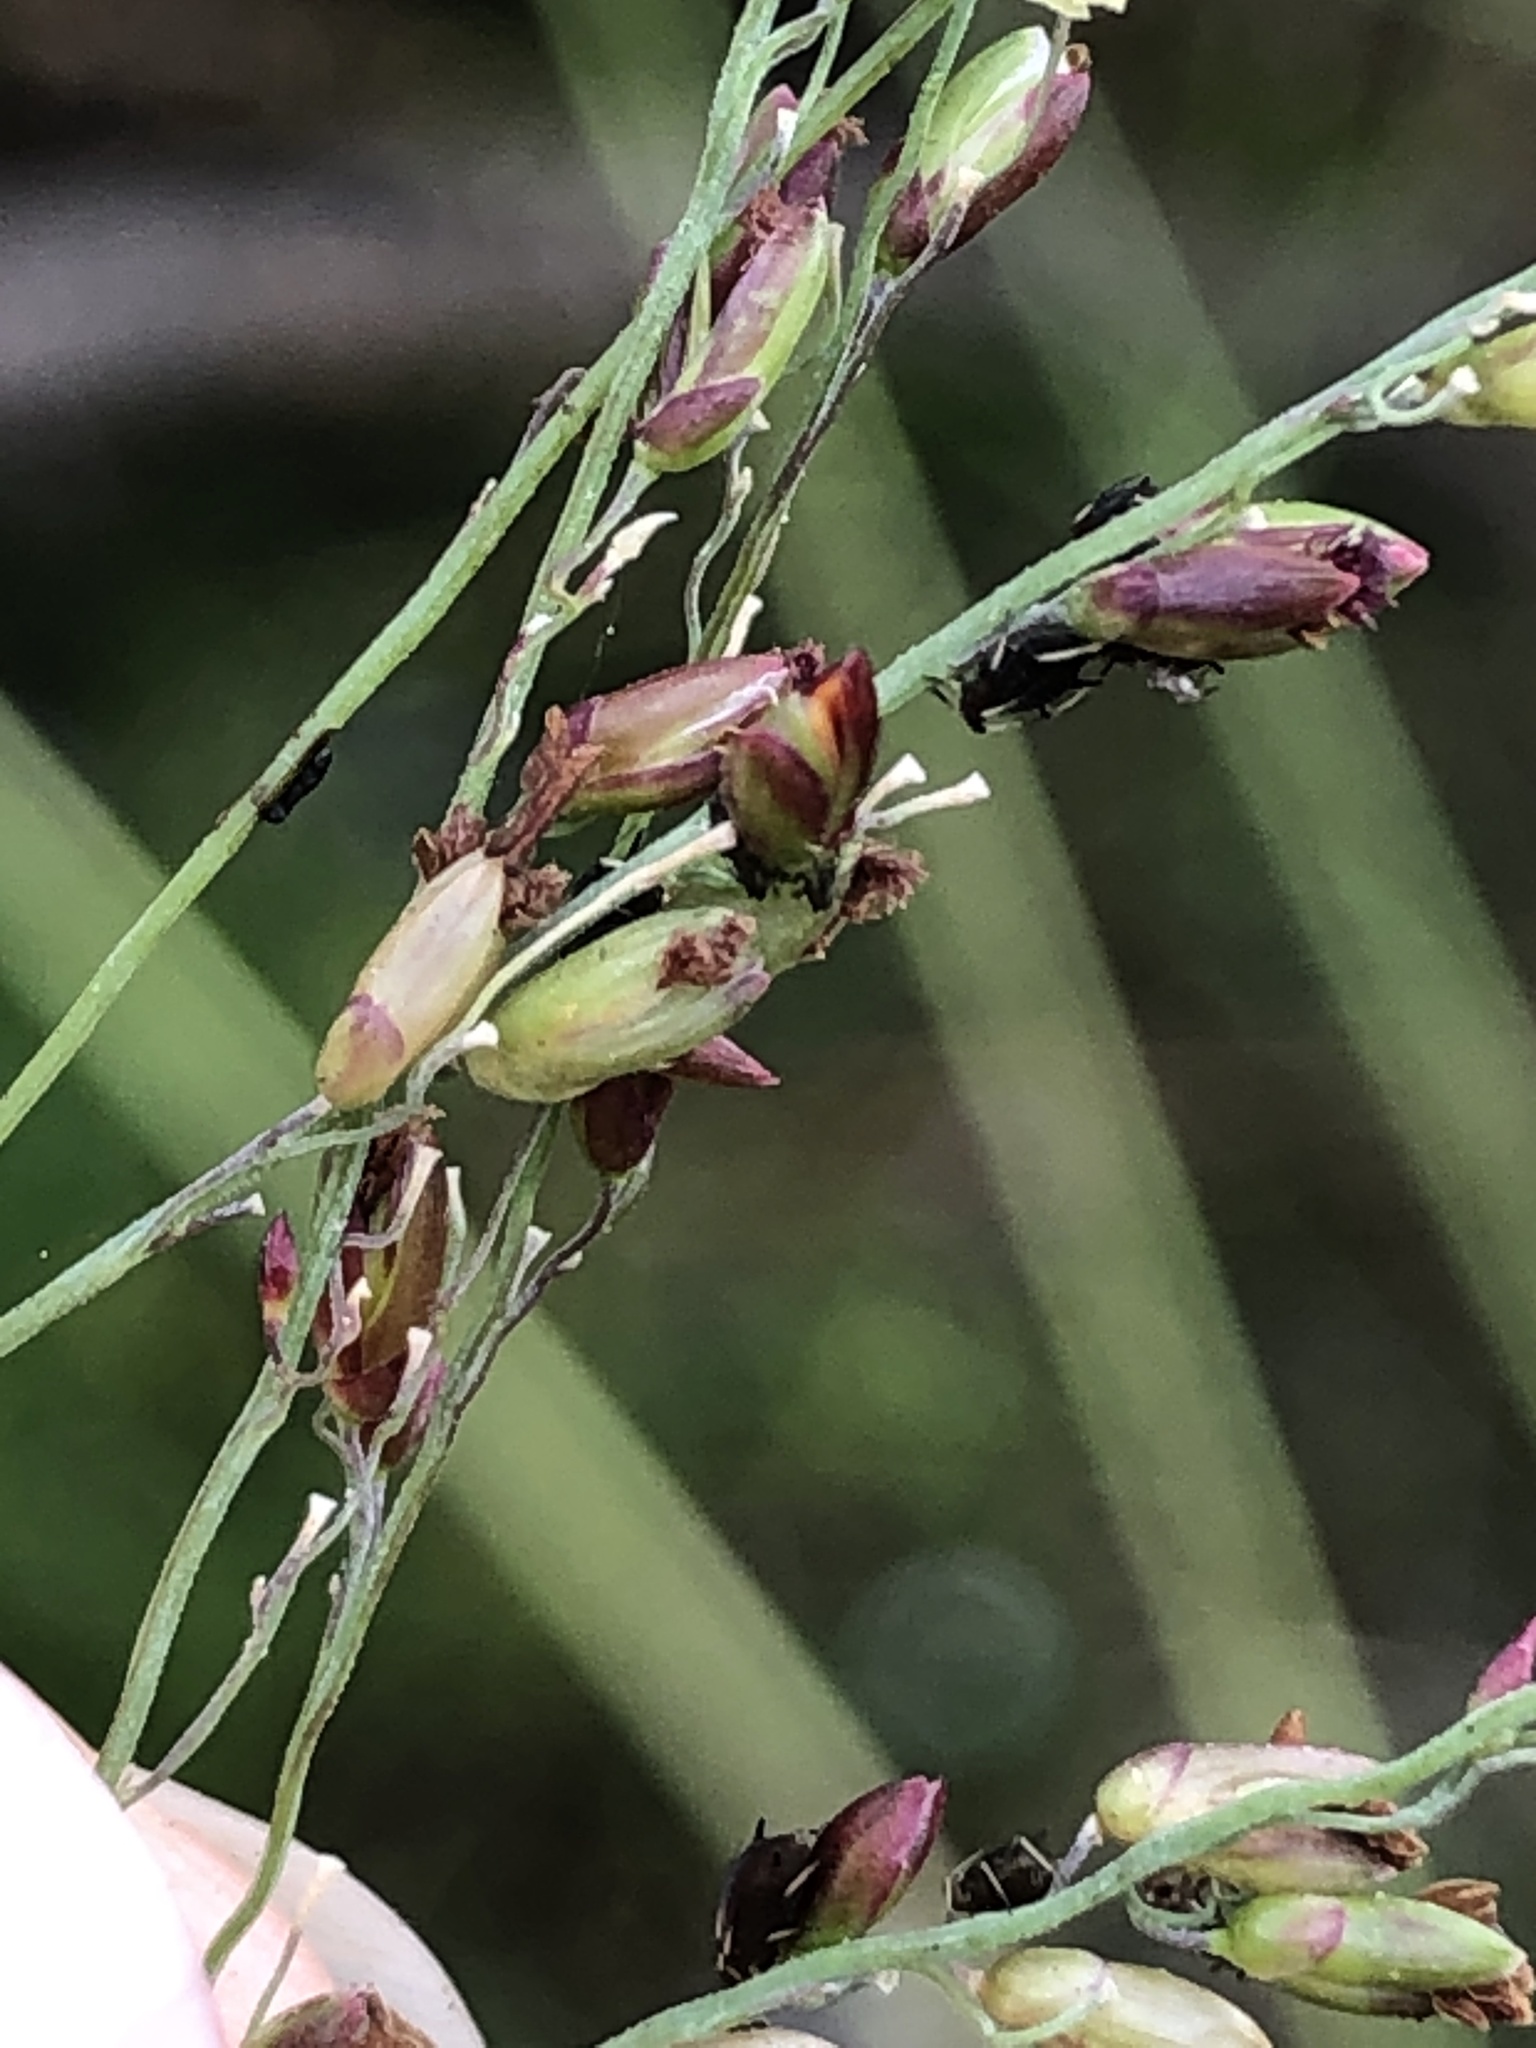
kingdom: Plantae
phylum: Tracheophyta
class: Liliopsida
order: Poales
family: Poaceae
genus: Megathyrsus
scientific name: Megathyrsus maximus
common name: Guineagrass
